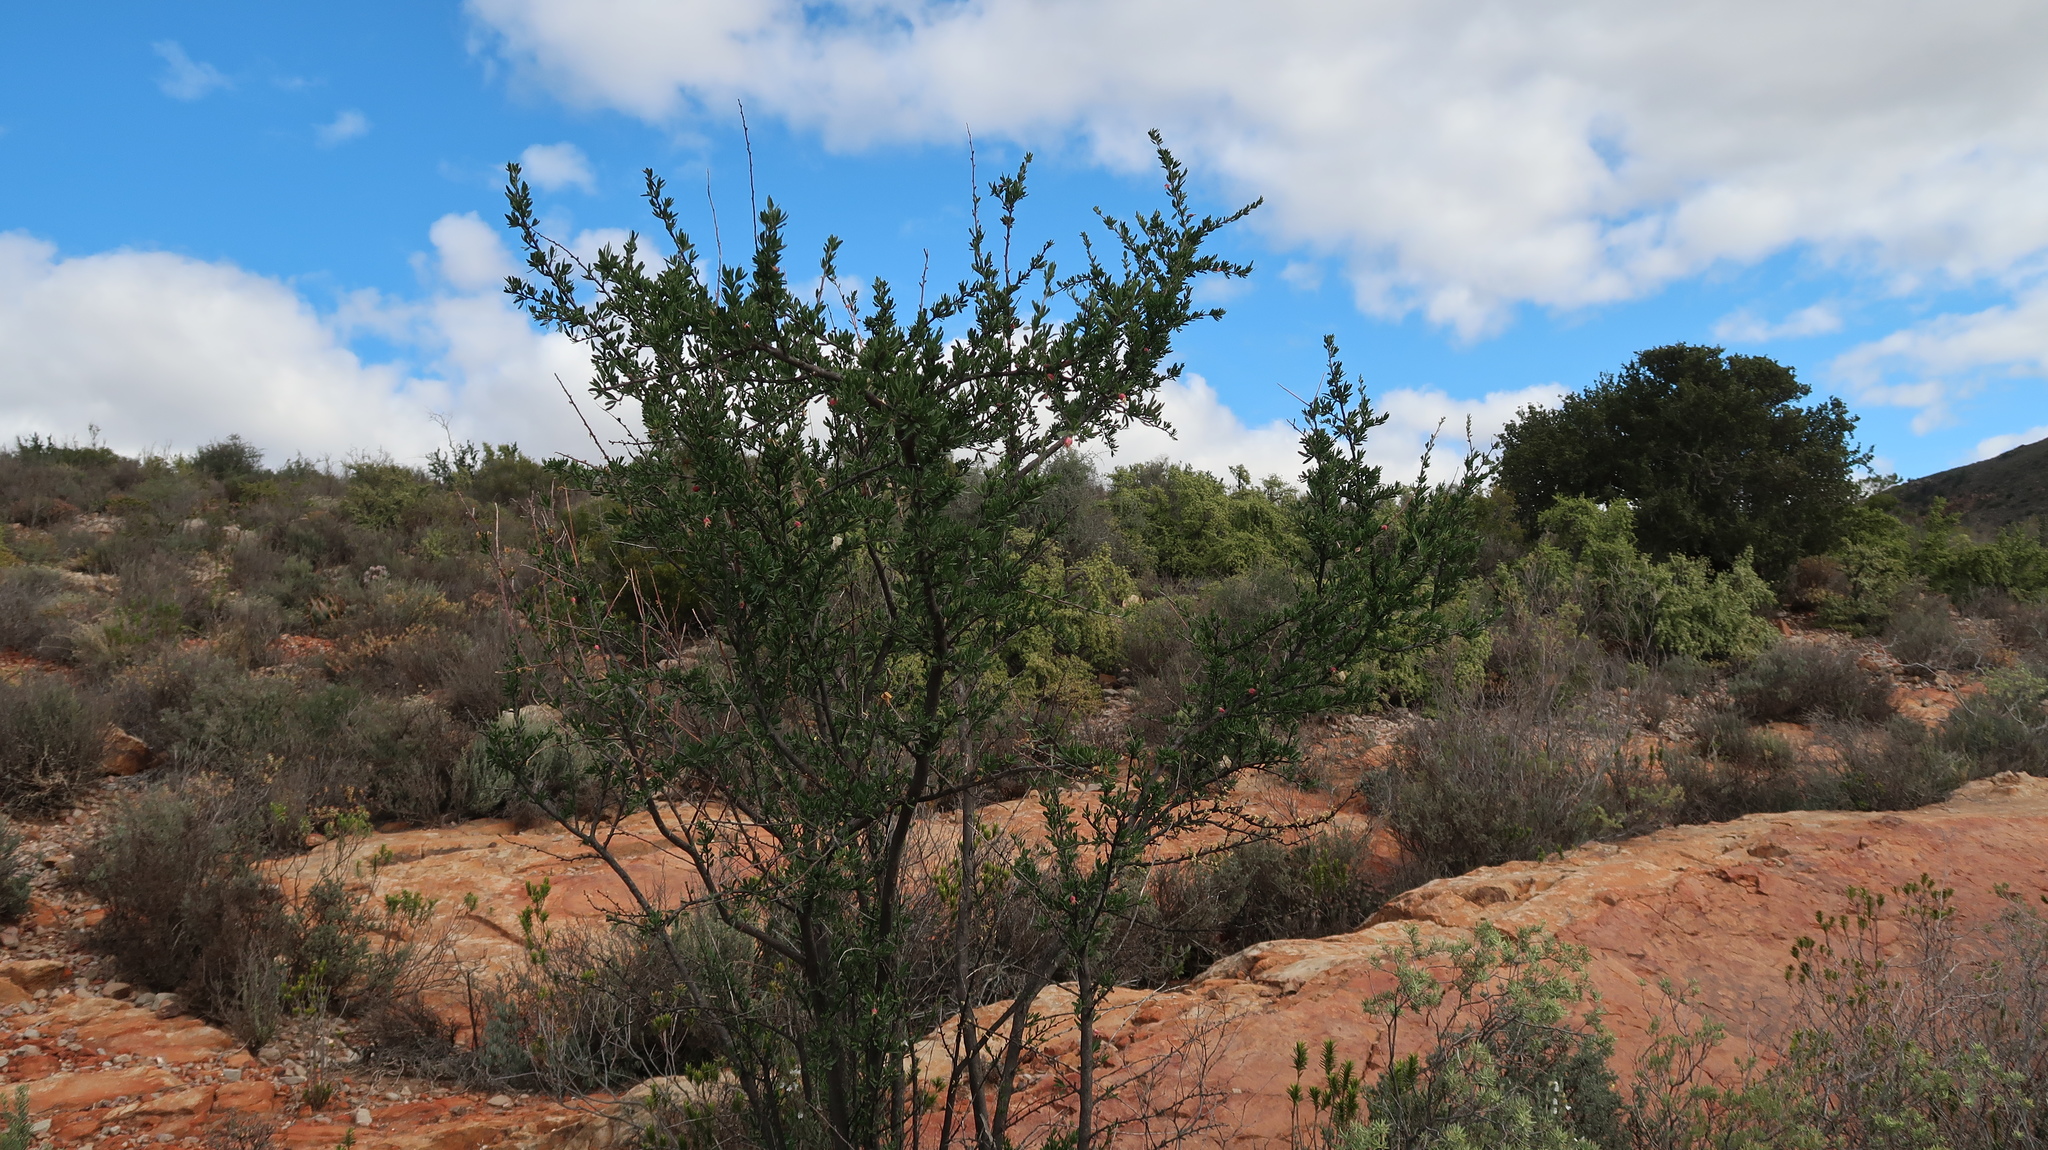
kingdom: Plantae
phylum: Tracheophyta
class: Magnoliopsida
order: Sapindales
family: Meliaceae
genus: Nymania
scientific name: Nymania capensis
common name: Chinese lantern tree
